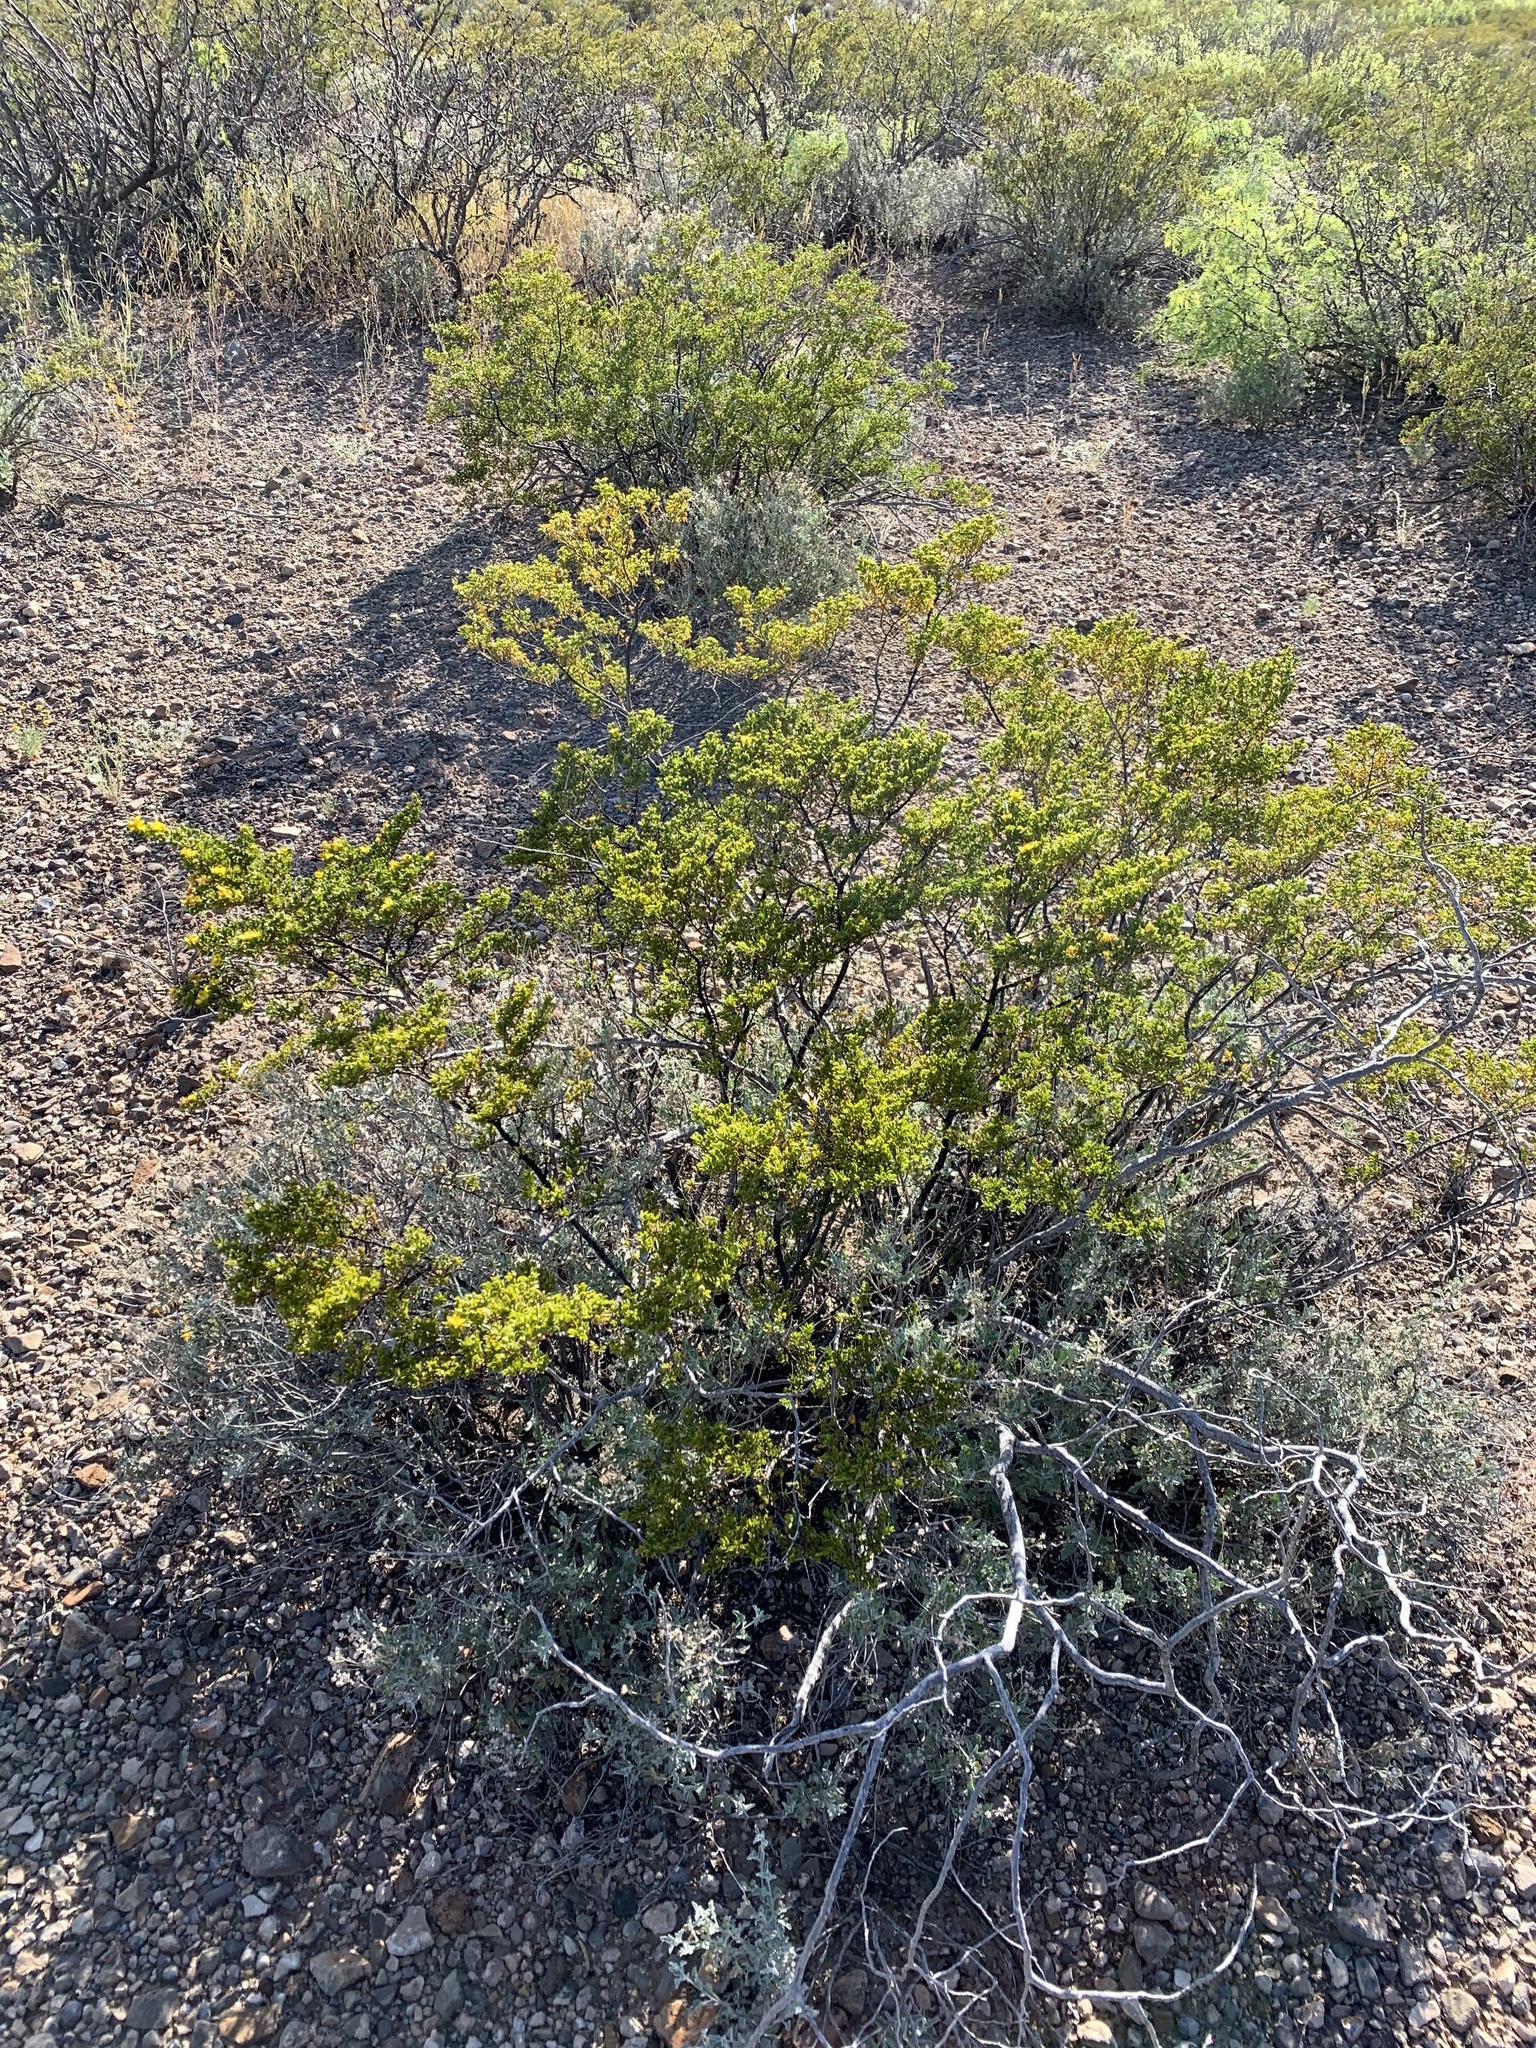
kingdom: Plantae
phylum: Tracheophyta
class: Magnoliopsida
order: Zygophyllales
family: Zygophyllaceae
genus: Larrea
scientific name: Larrea tridentata
